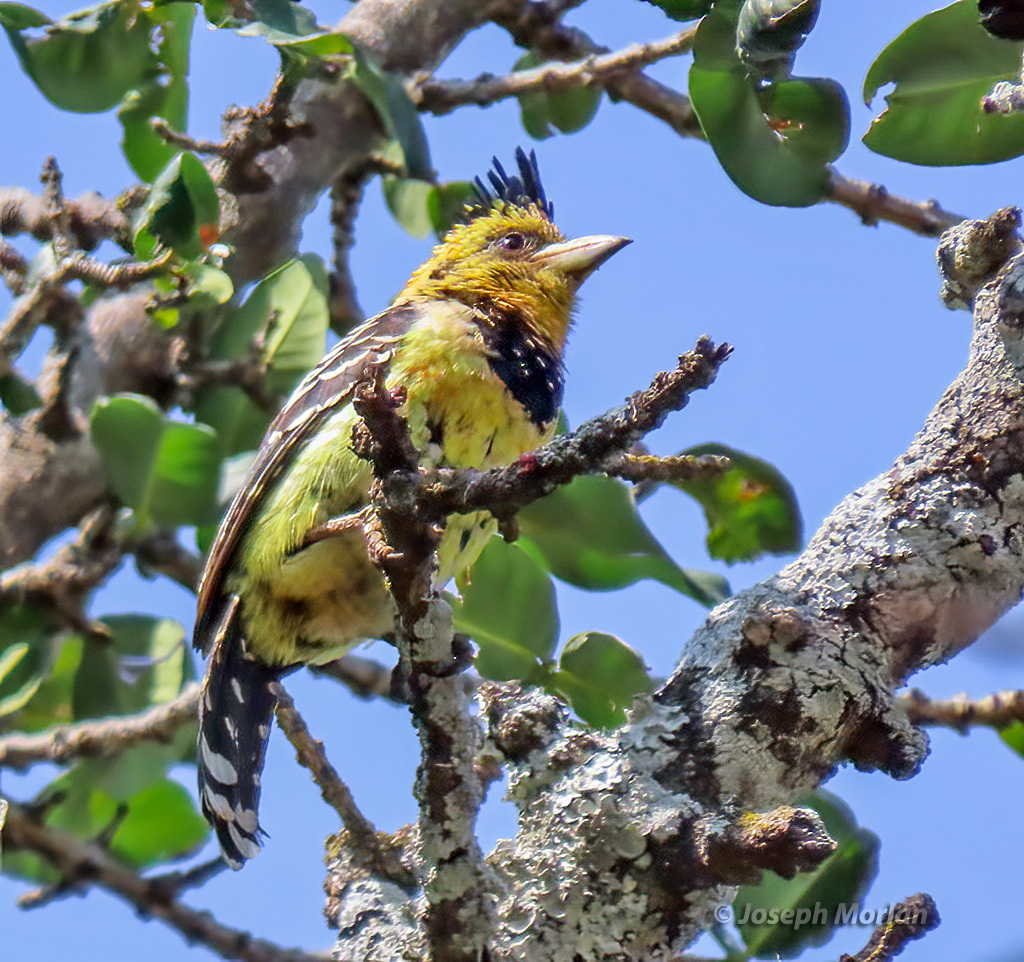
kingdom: Animalia
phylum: Chordata
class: Aves
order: Piciformes
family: Lybiidae
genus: Trachyphonus
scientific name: Trachyphonus vaillantii
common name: Crested barbet
